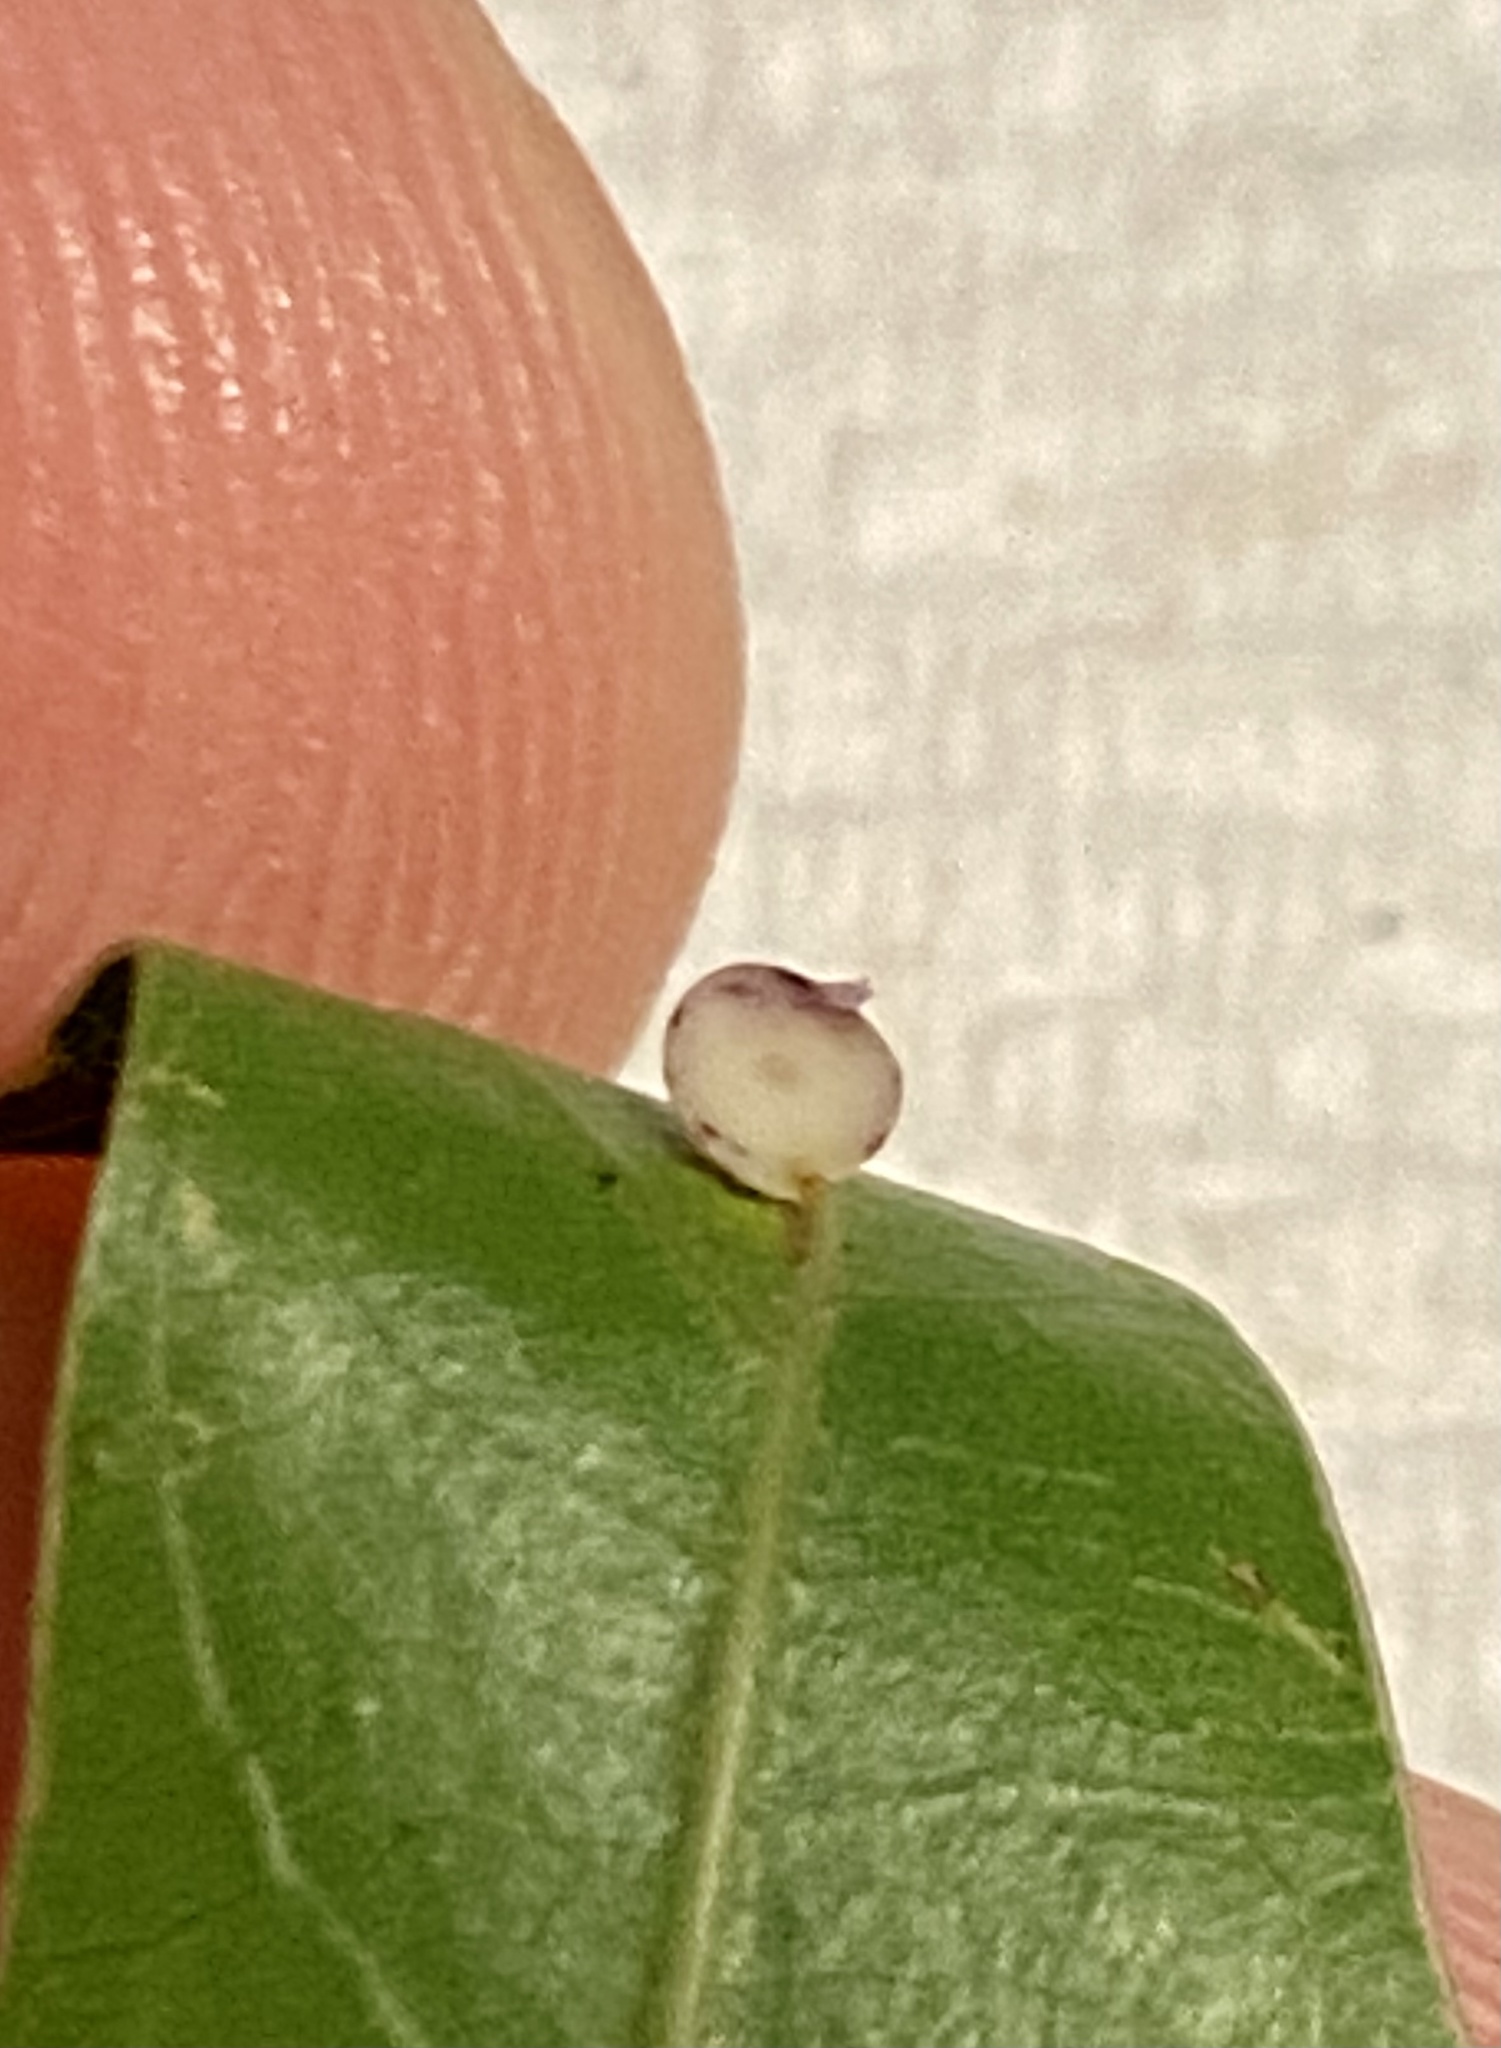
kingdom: Animalia
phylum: Arthropoda
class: Insecta
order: Hymenoptera
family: Cynipidae
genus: Zopheroteras
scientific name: Zopheroteras
